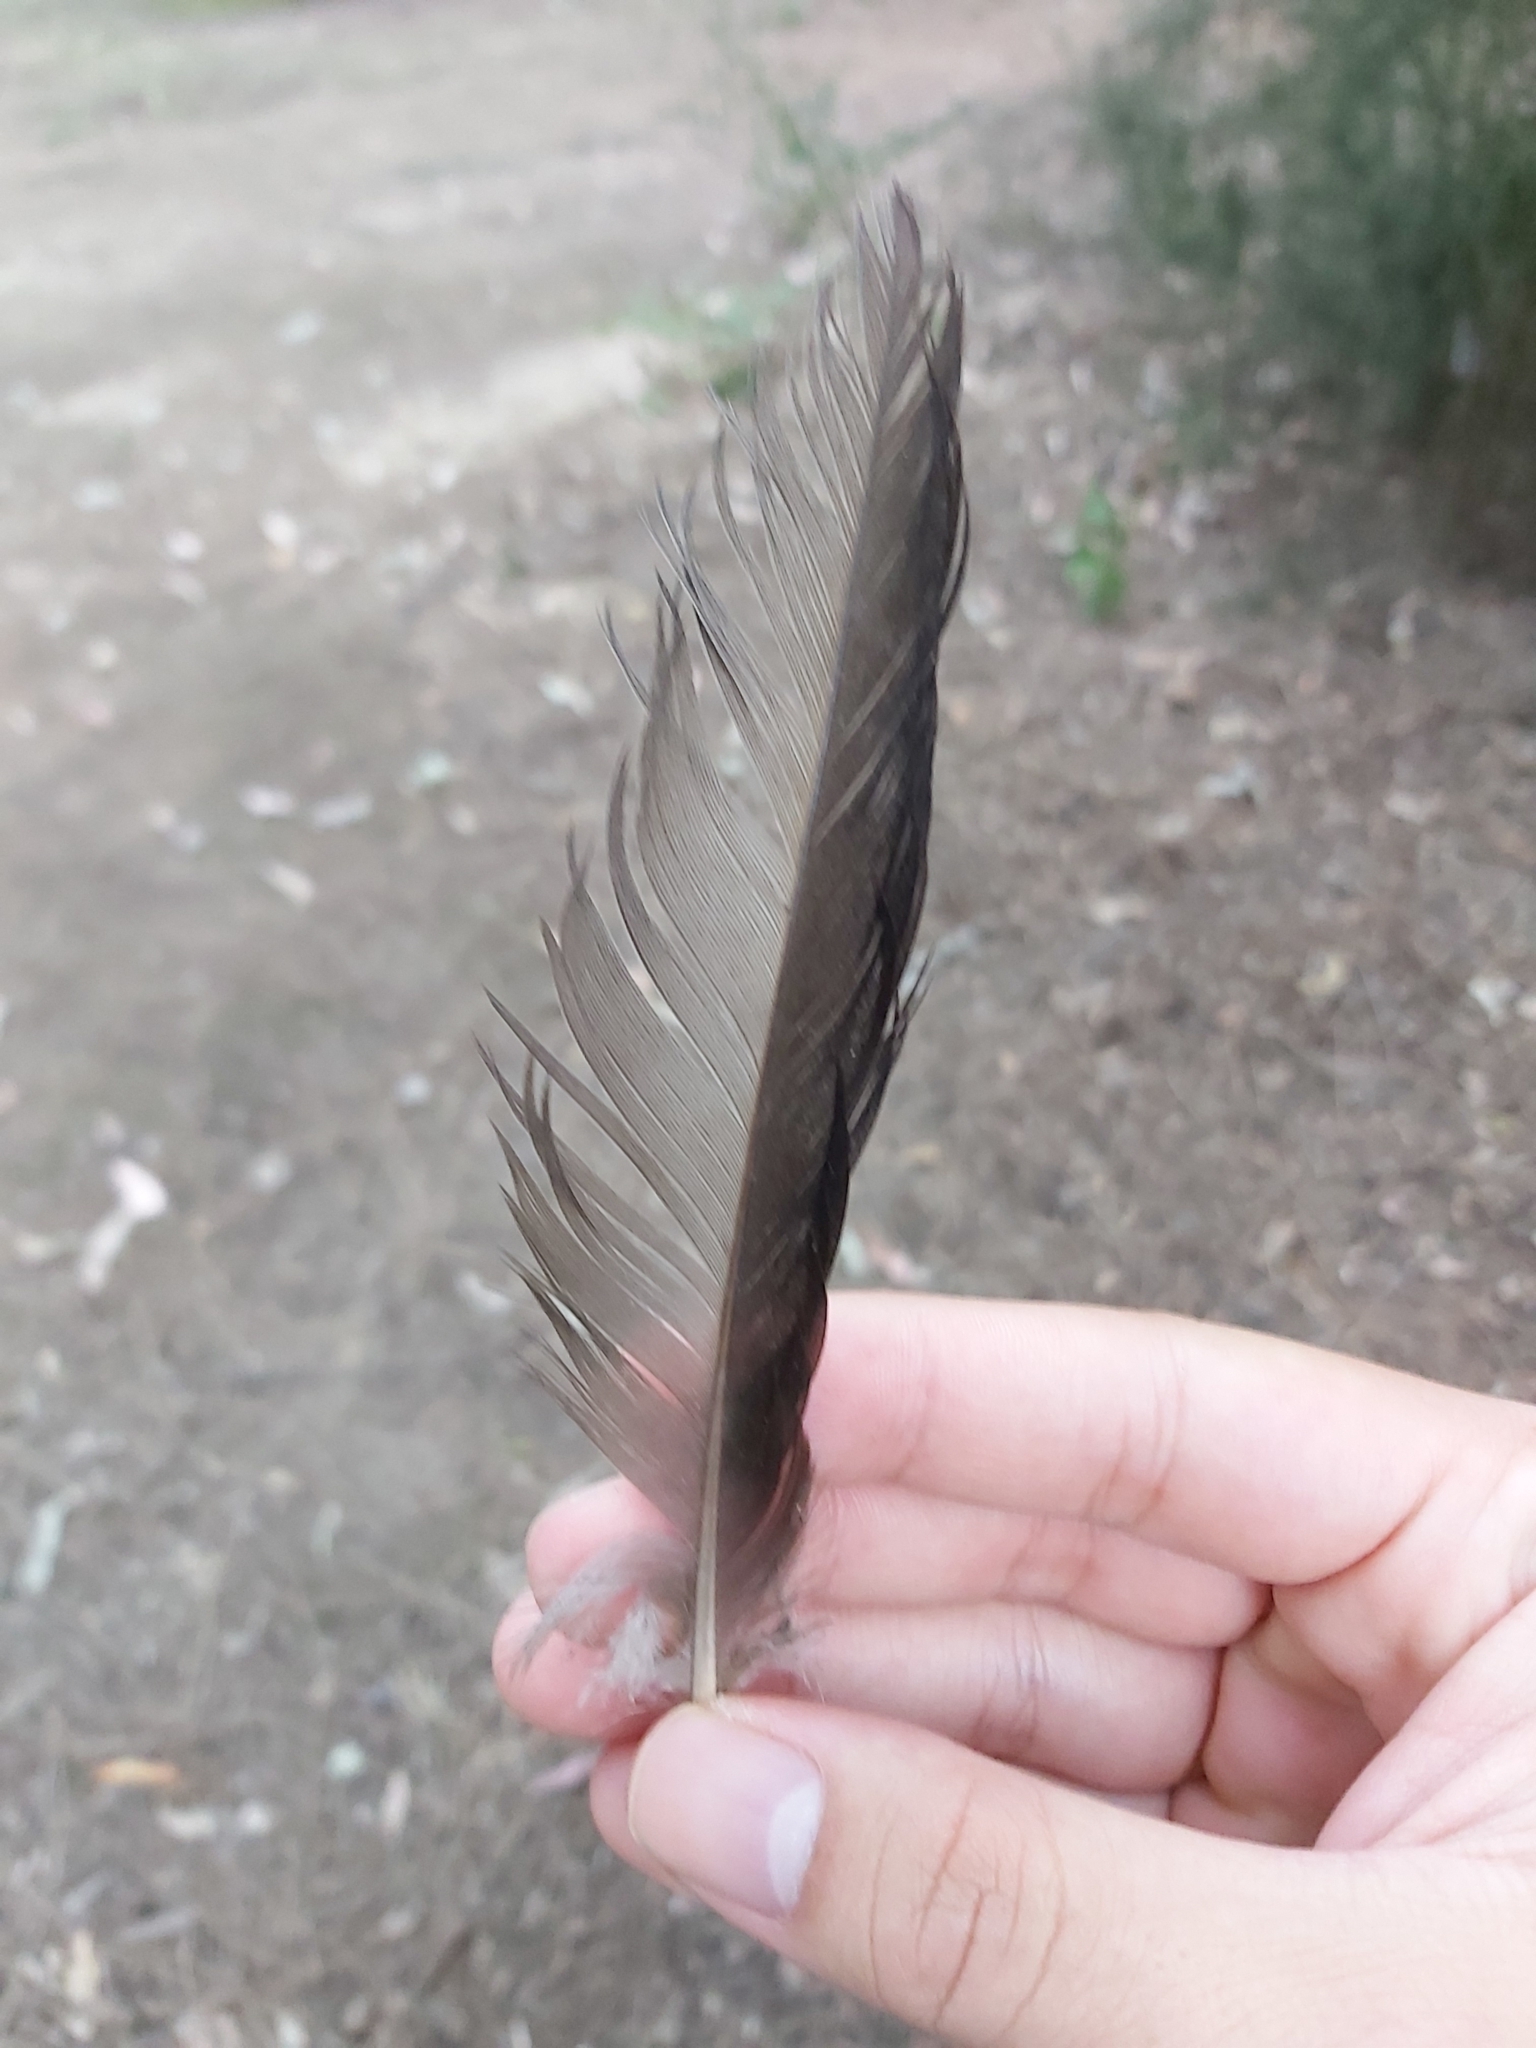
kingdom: Animalia
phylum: Chordata
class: Aves
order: Anseriformes
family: Anatidae
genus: Chenonetta
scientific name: Chenonetta jubata
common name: Maned duck
